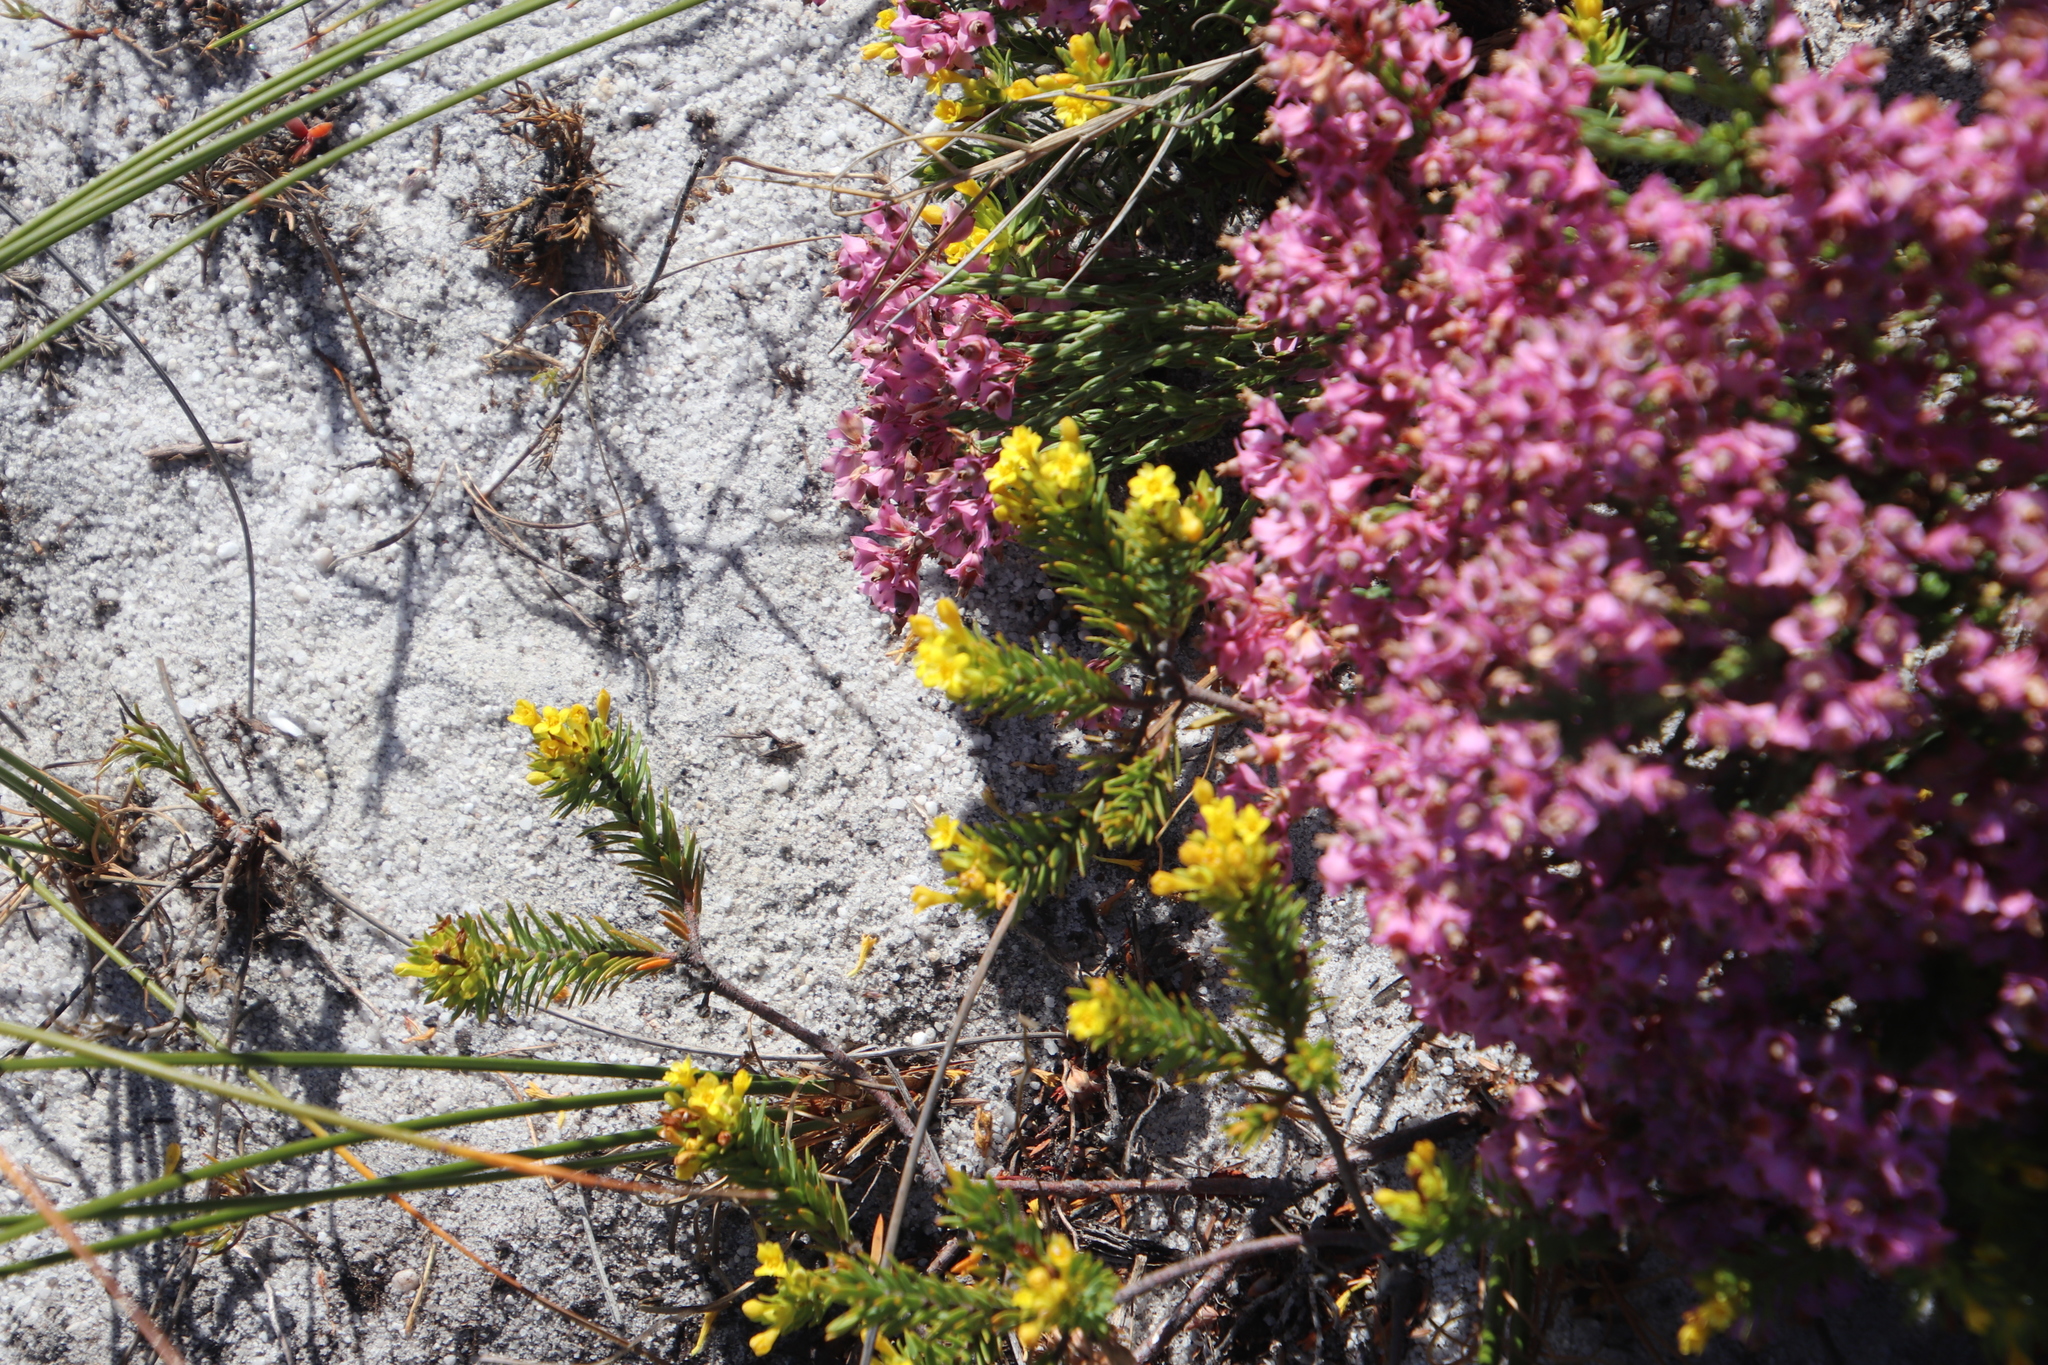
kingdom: Plantae
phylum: Tracheophyta
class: Magnoliopsida
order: Malvales
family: Thymelaeaceae
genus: Gnidia
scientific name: Gnidia juniperifolia
